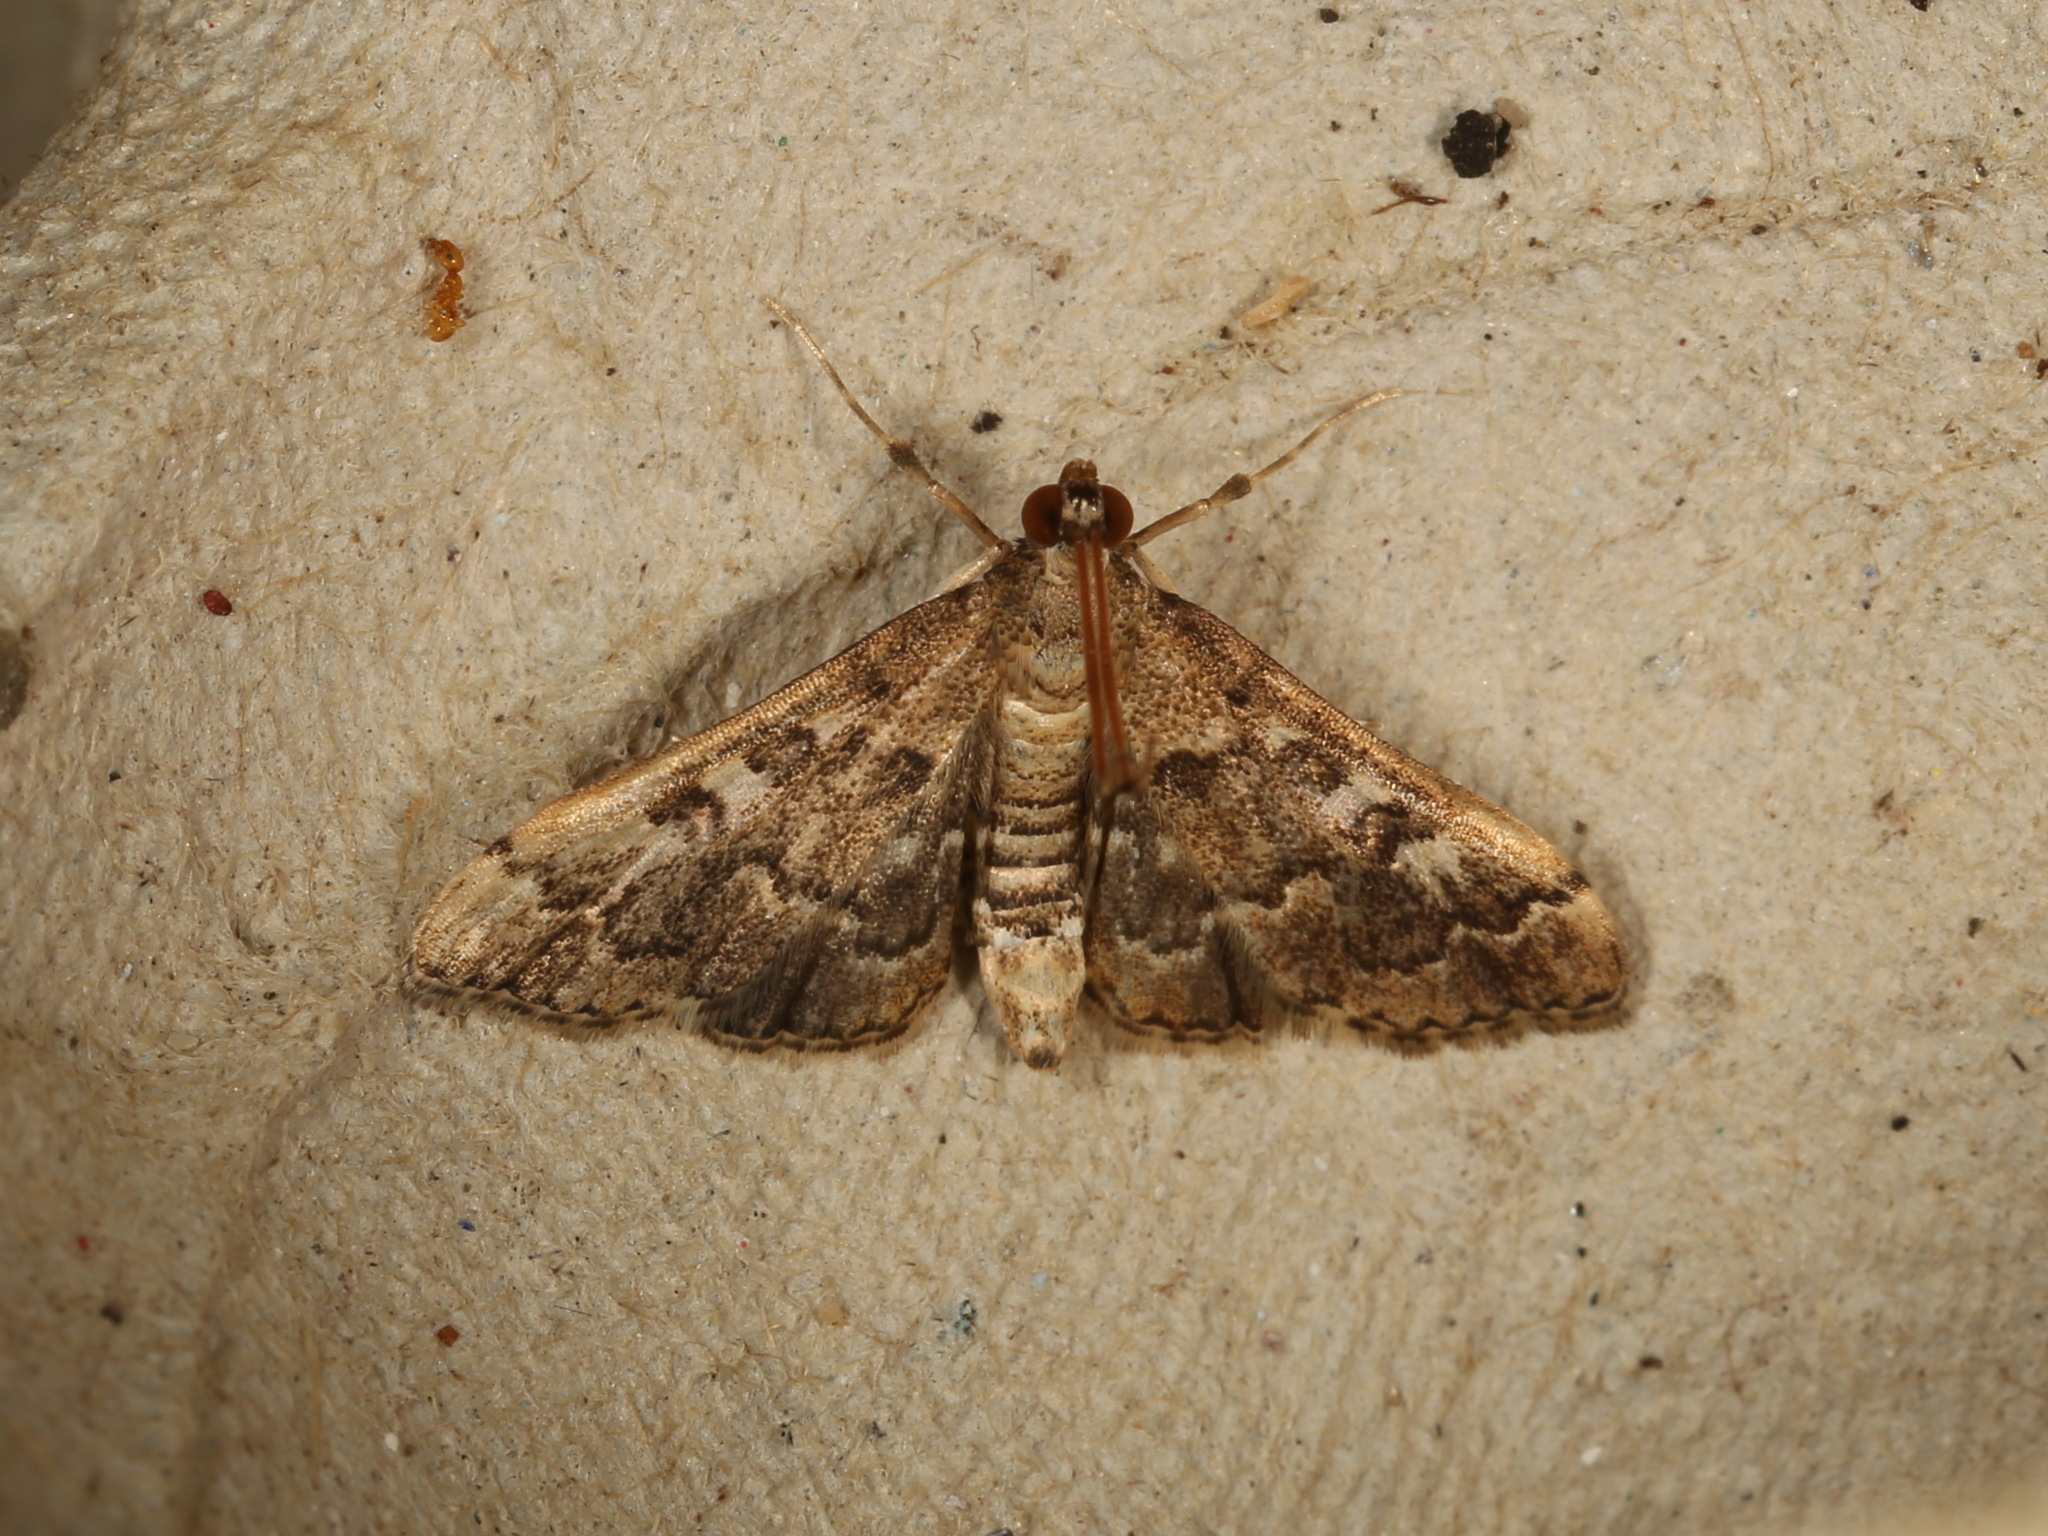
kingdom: Animalia
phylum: Arthropoda
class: Insecta
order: Lepidoptera
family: Crambidae
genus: Nacoleia
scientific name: Nacoleia rhoeoalis
